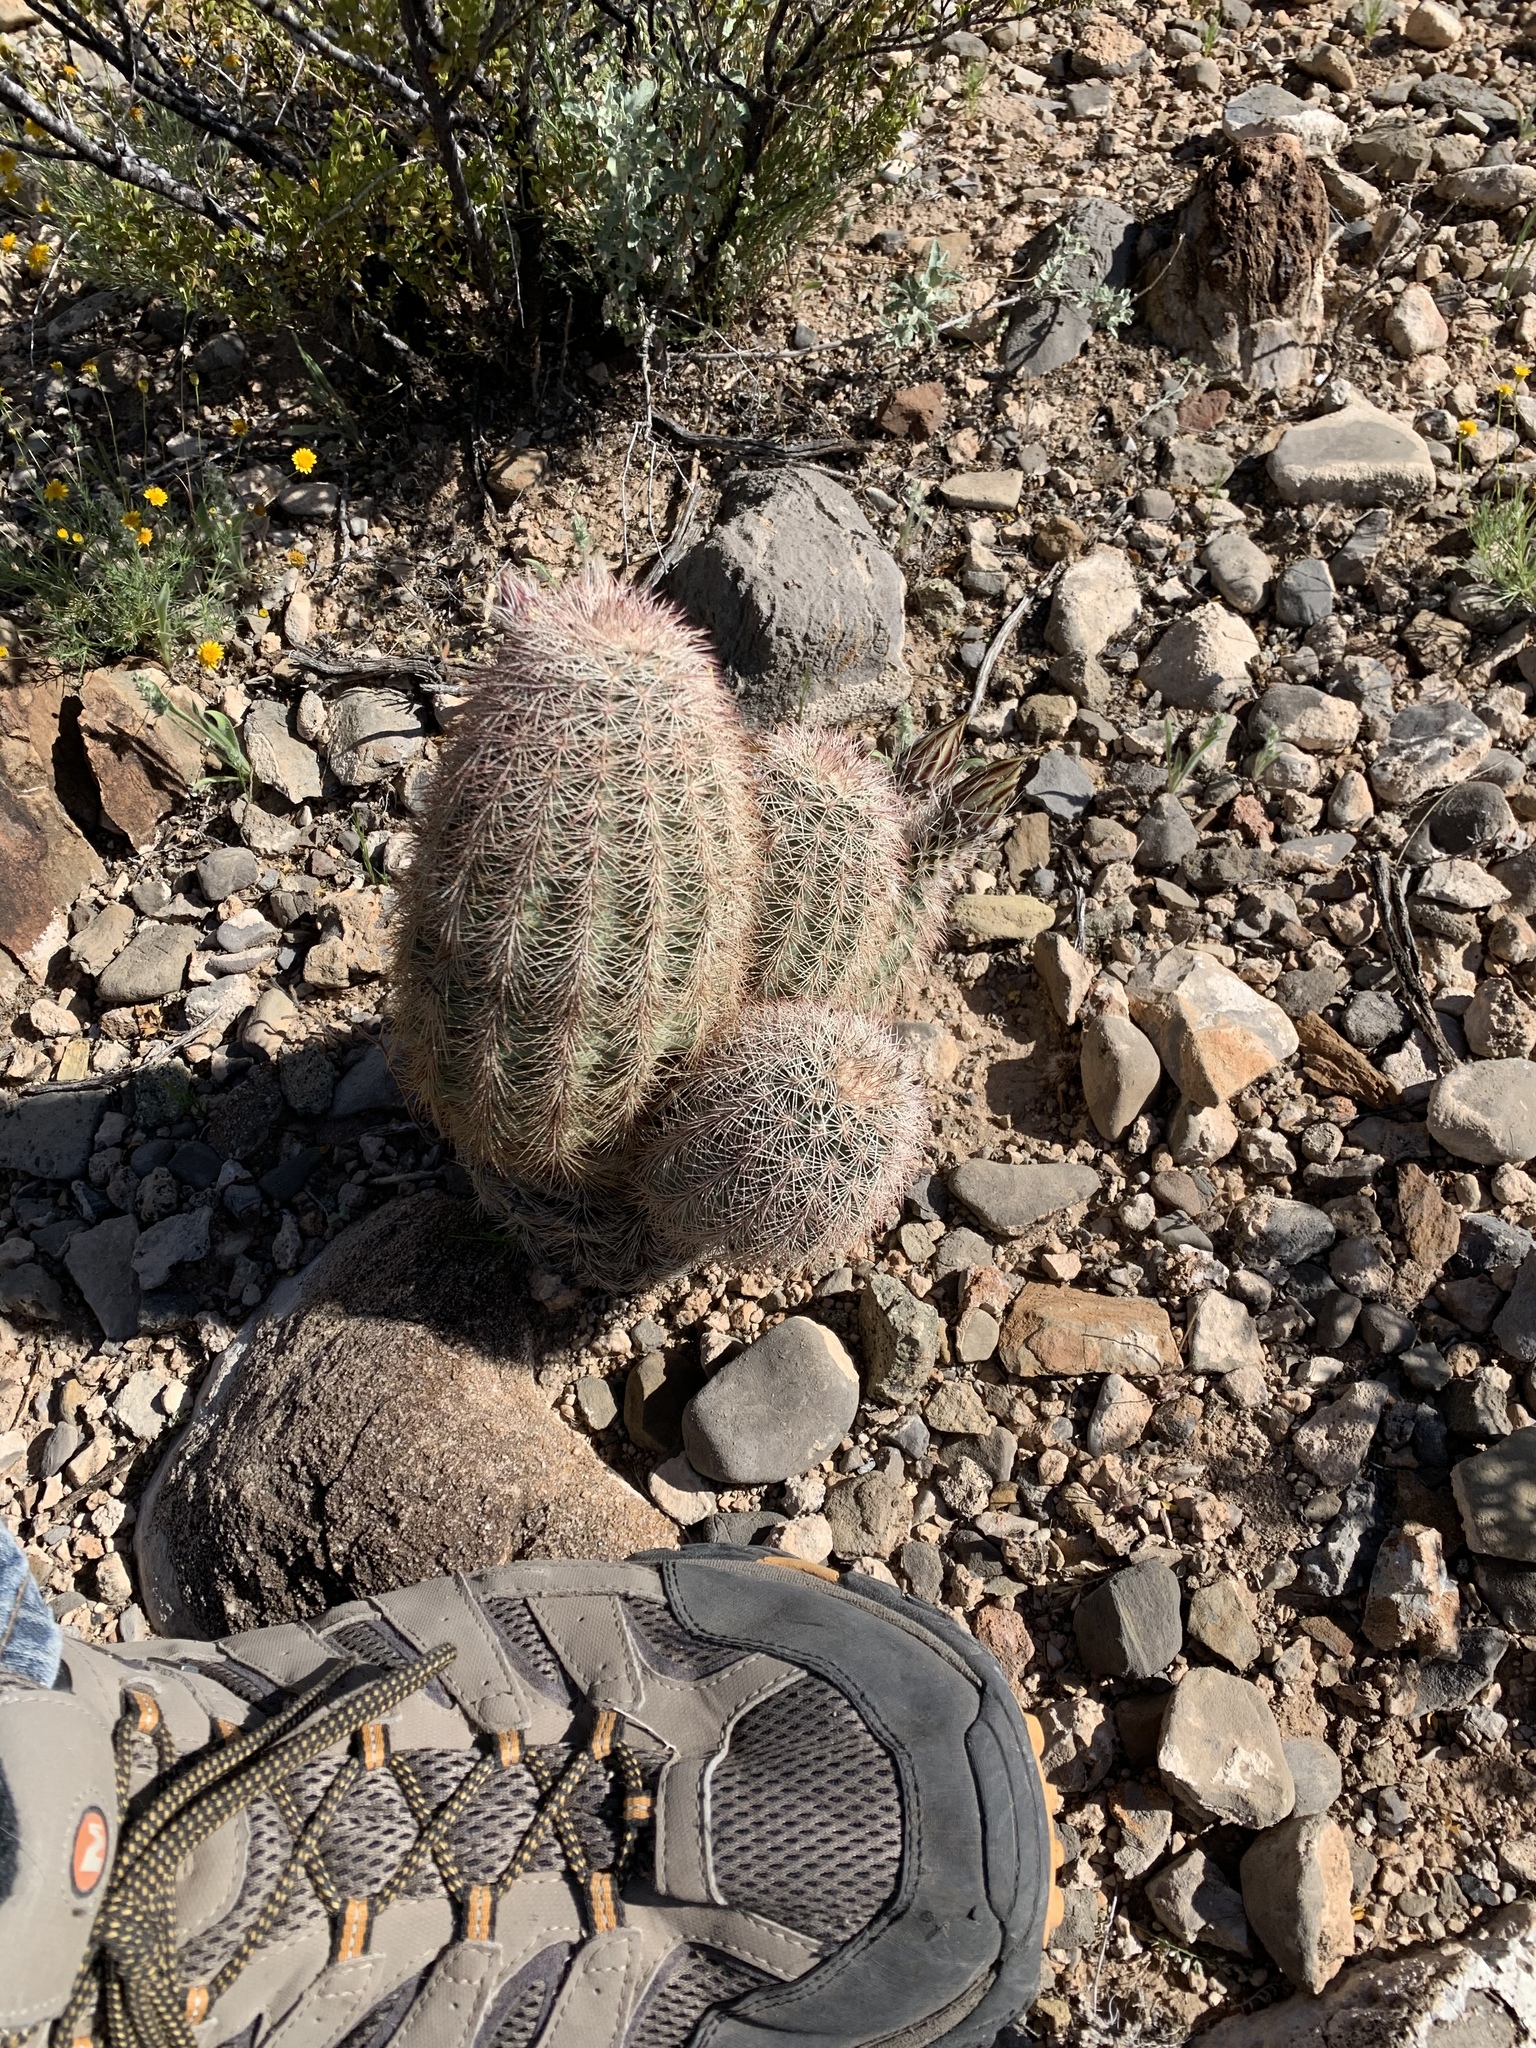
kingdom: Plantae
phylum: Tracheophyta
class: Magnoliopsida
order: Caryophyllales
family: Cactaceae
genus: Echinocereus
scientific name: Echinocereus dasyacanthus
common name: Spiny hedgehog cactus
